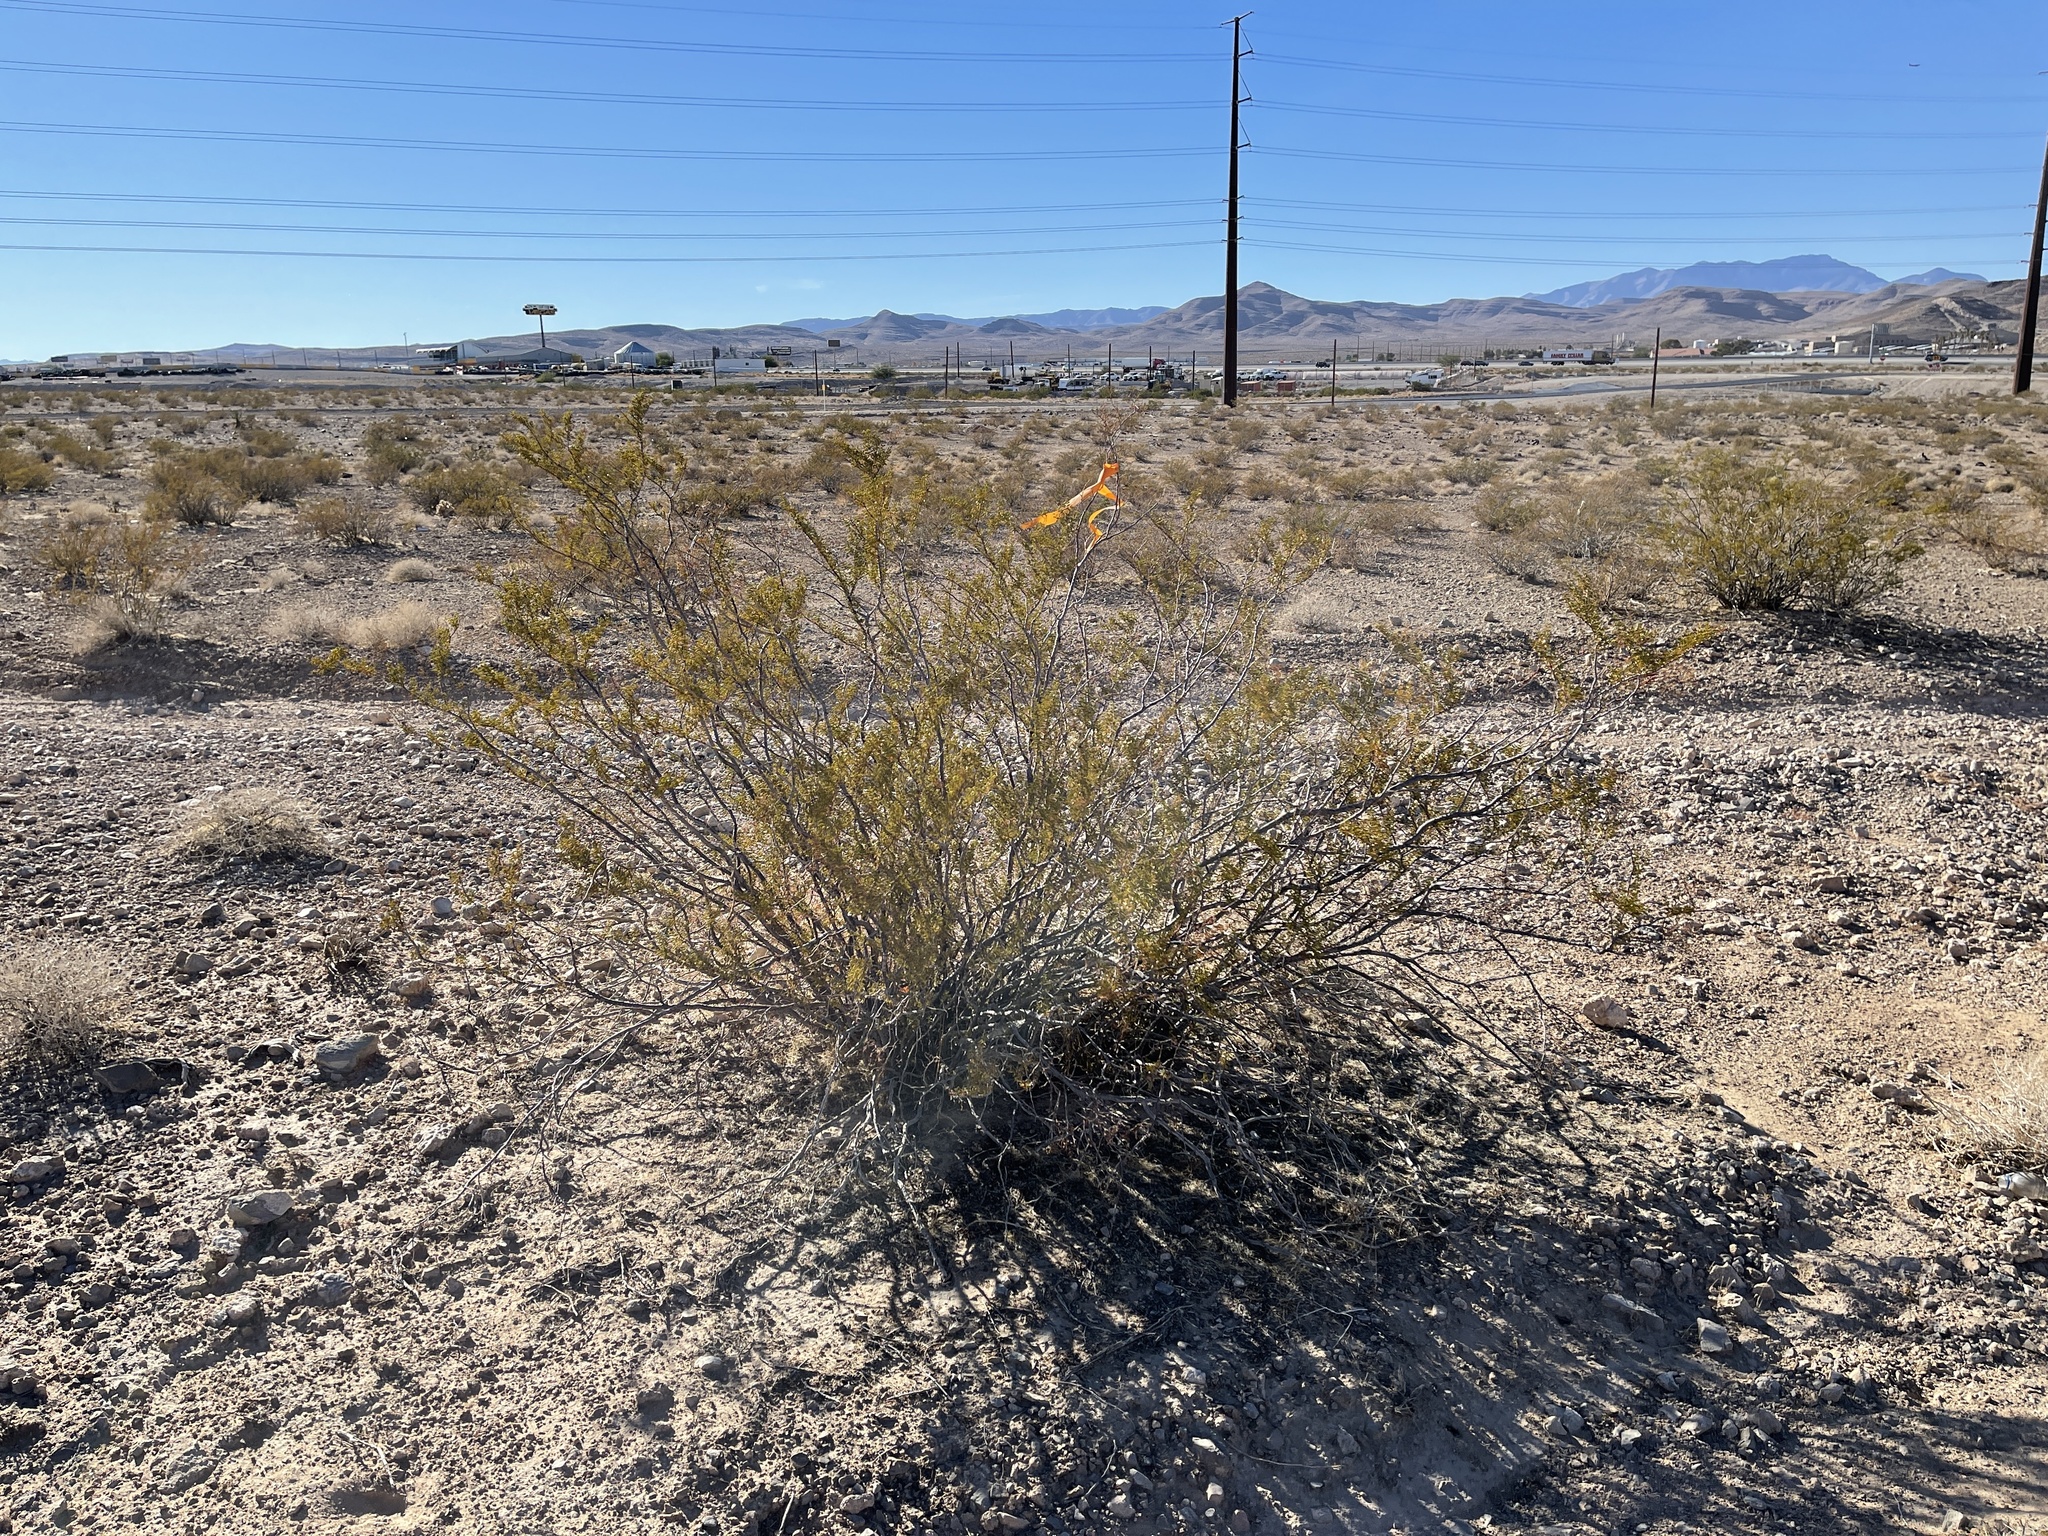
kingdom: Plantae
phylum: Tracheophyta
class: Magnoliopsida
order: Zygophyllales
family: Zygophyllaceae
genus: Larrea
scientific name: Larrea tridentata
